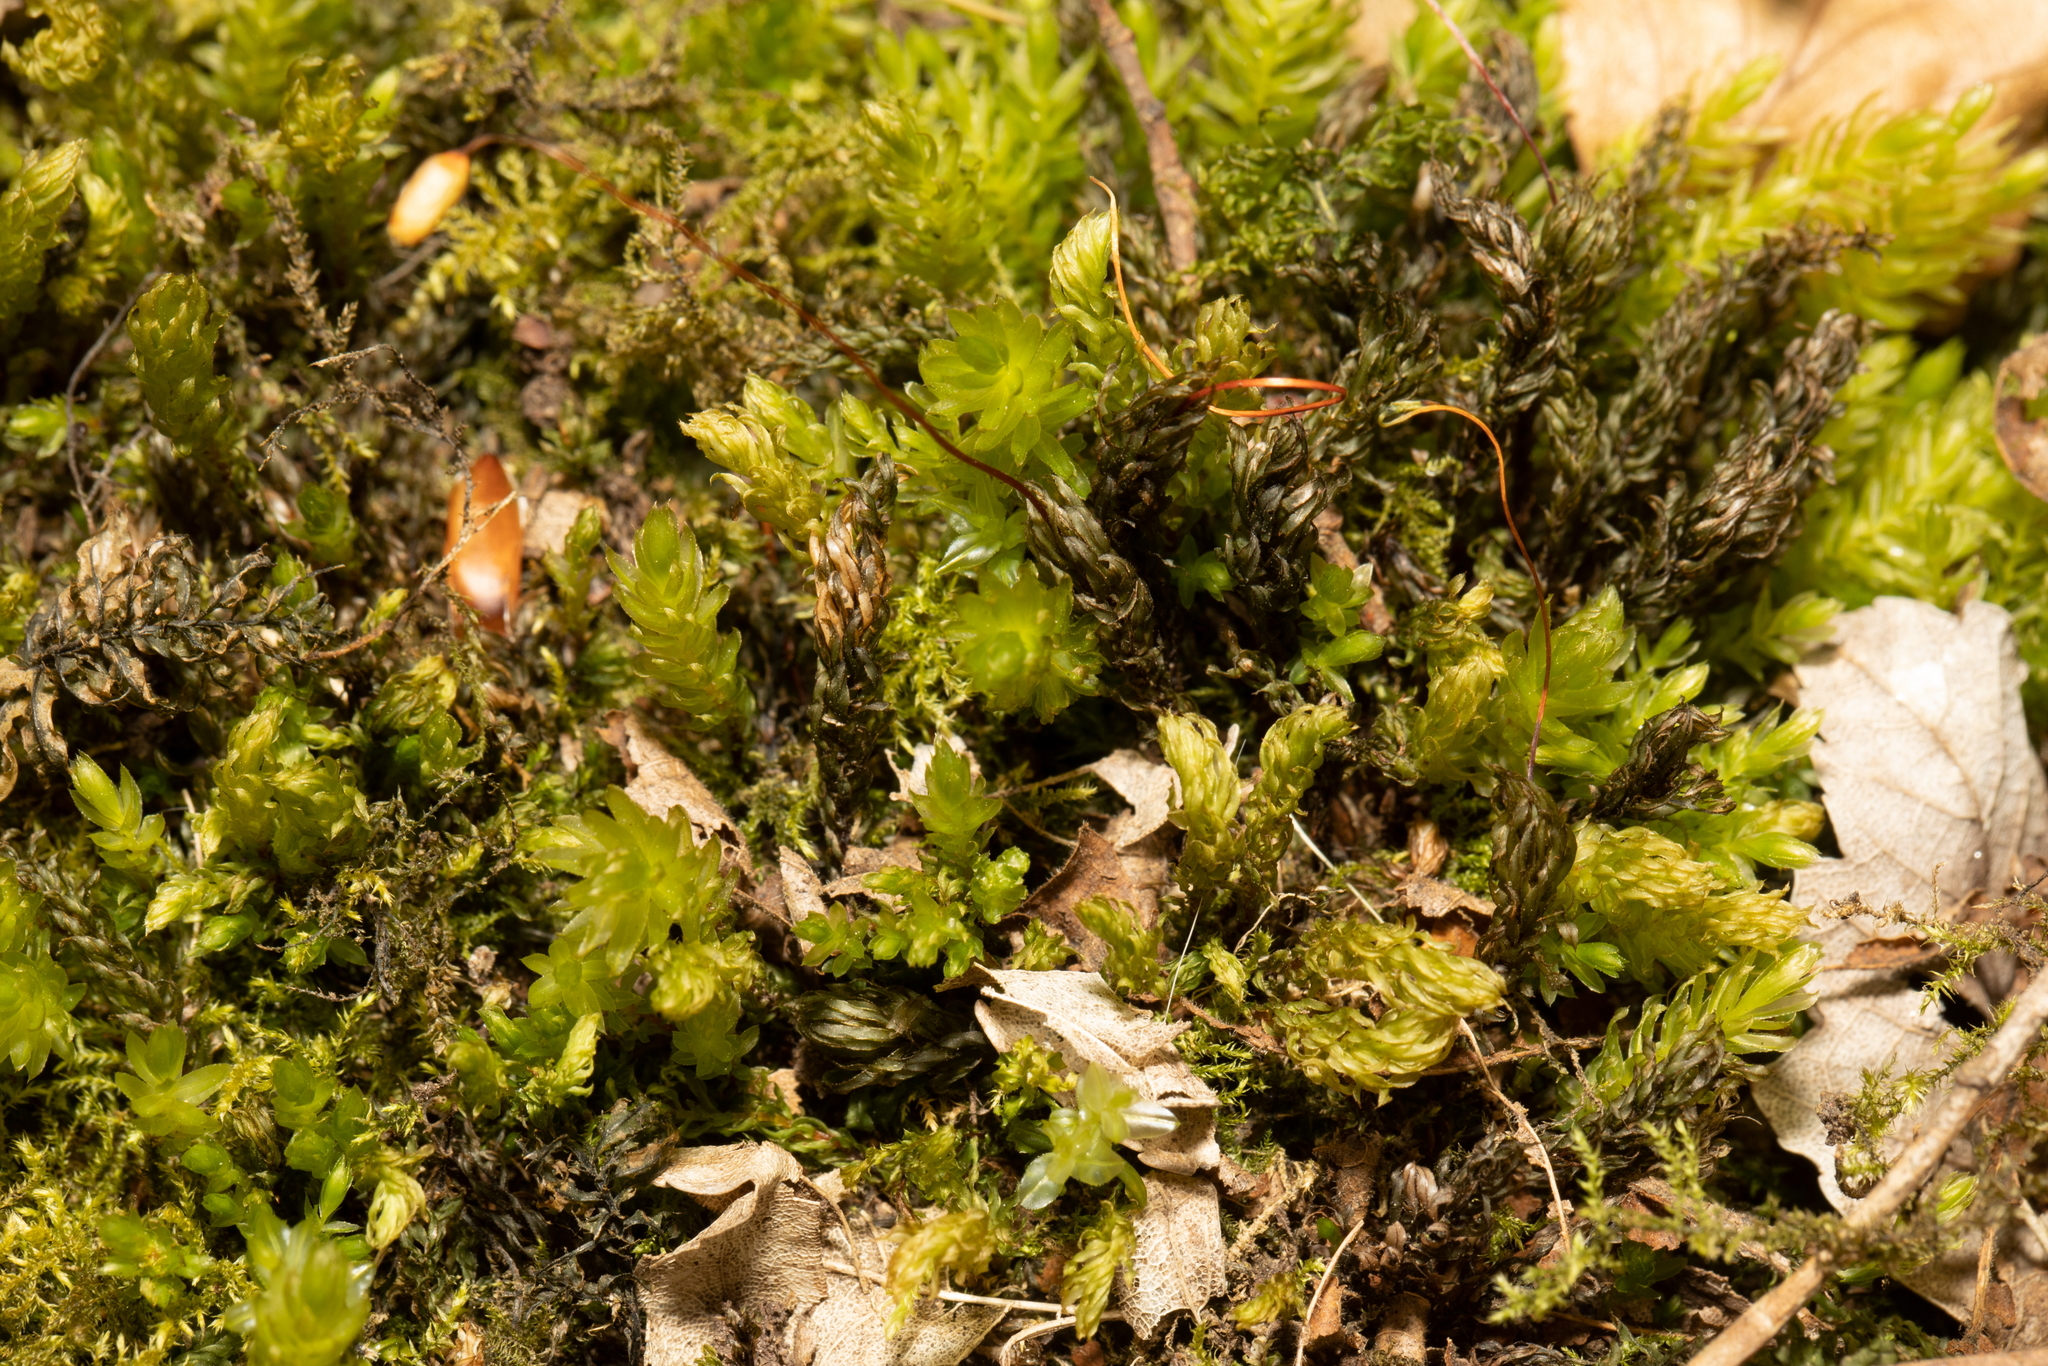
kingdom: Plantae
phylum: Bryophyta
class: Bryopsida
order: Bryales
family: Mniaceae
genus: Mnium
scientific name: Mnium hornum
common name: Swan's-neck leafy moss
